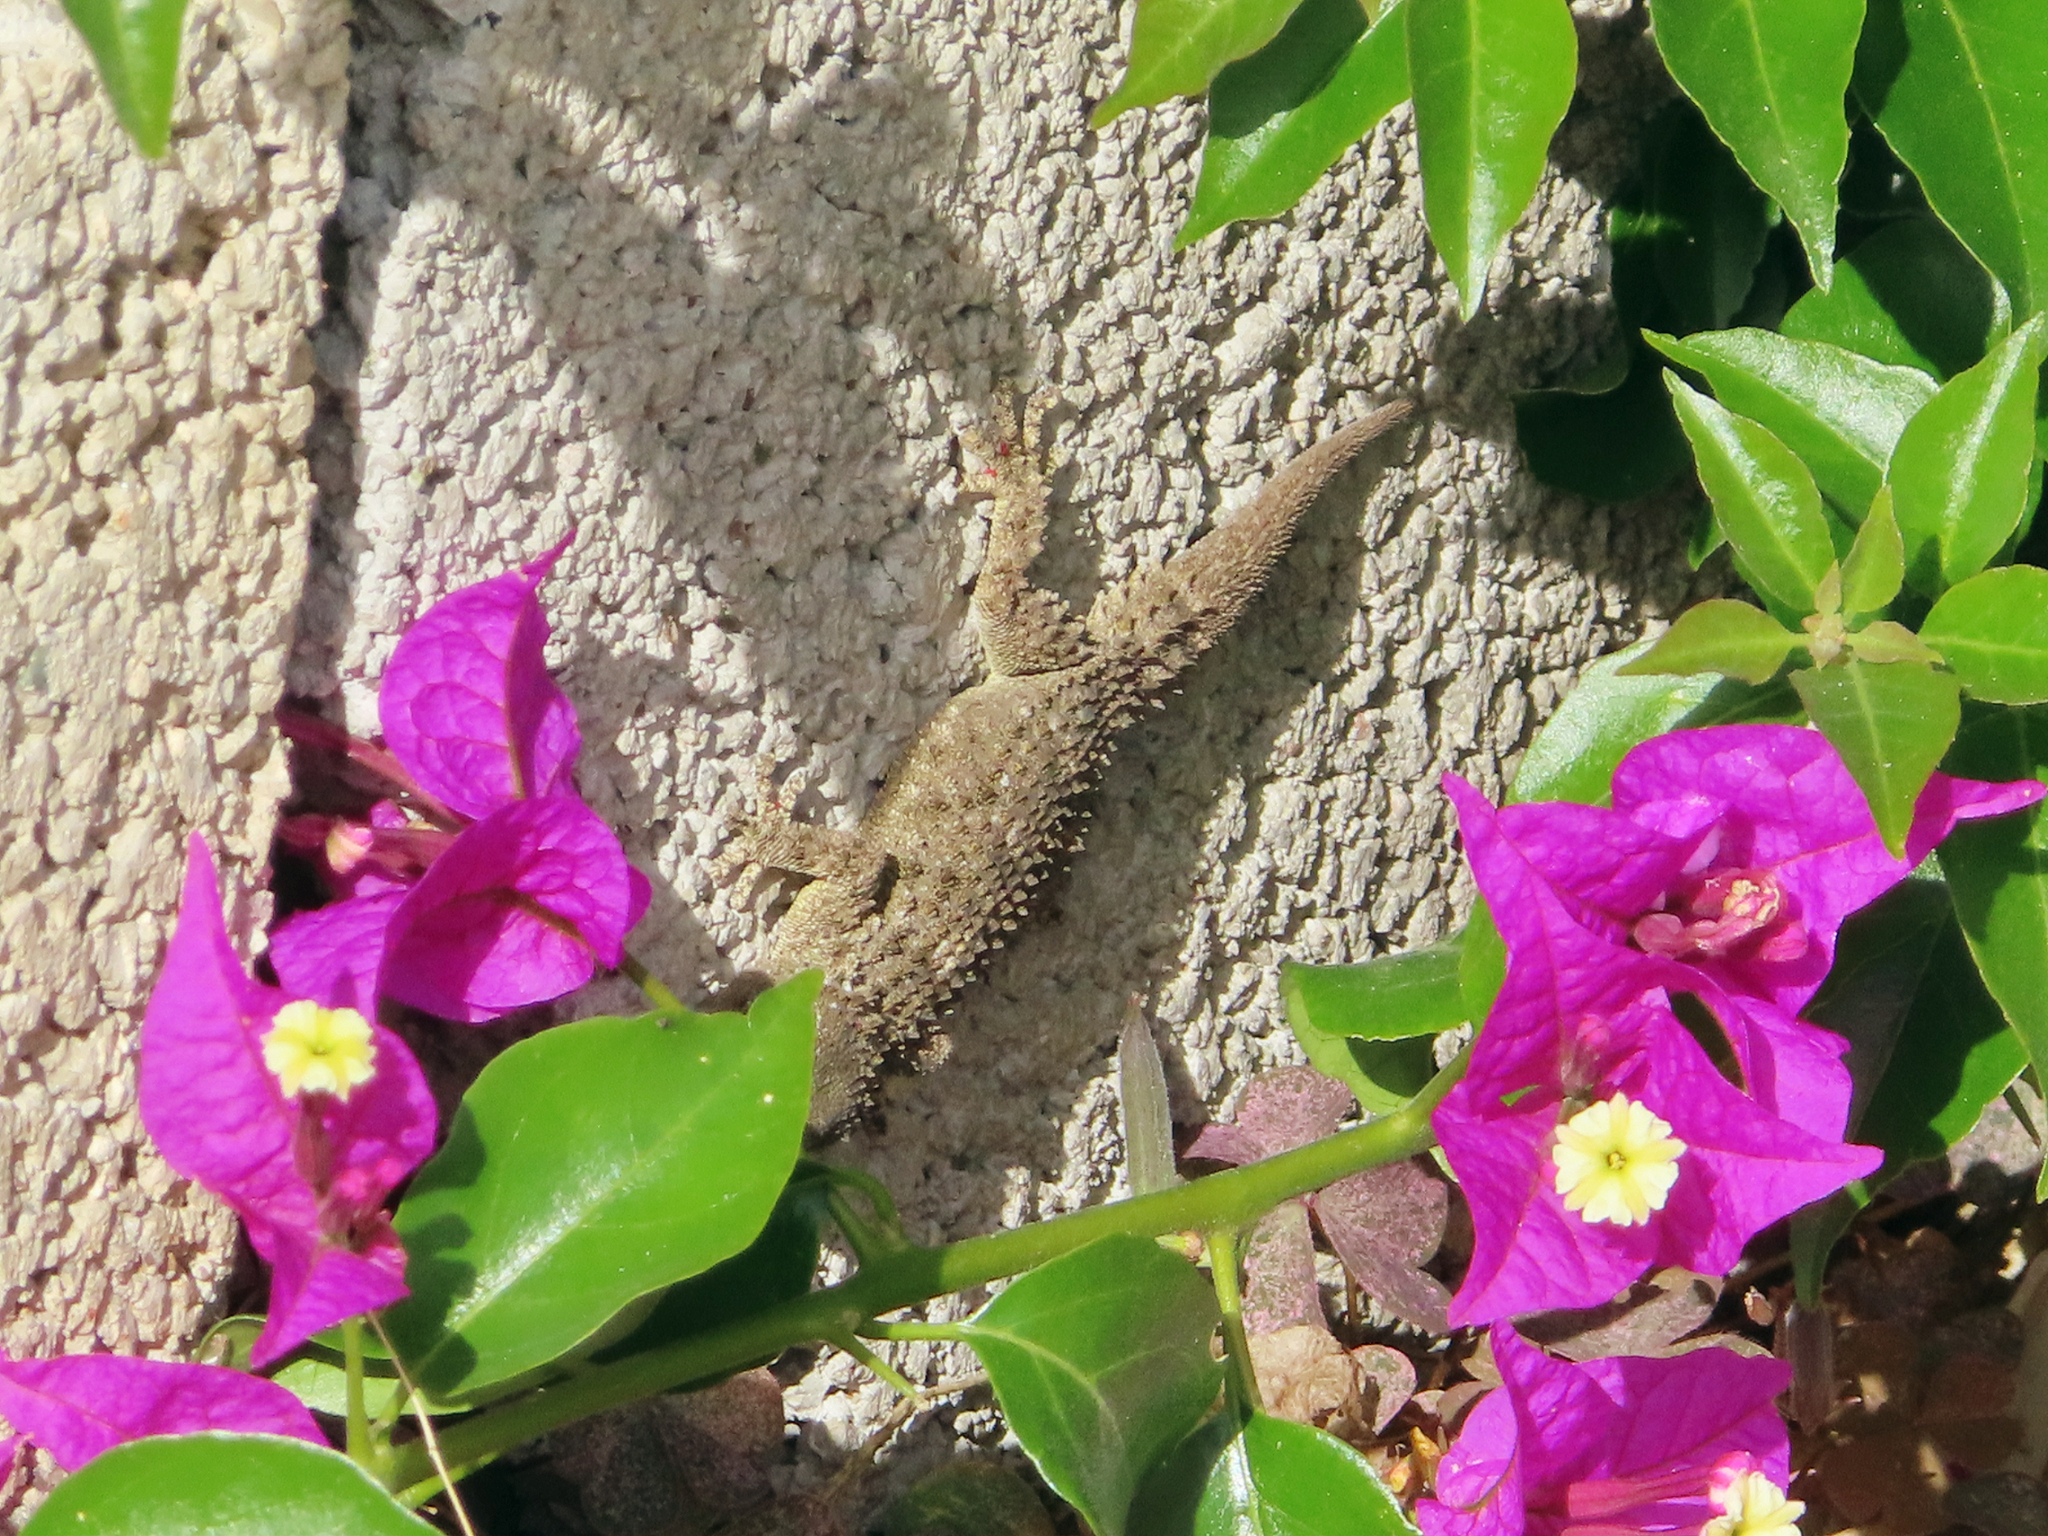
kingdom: Animalia
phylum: Chordata
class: Squamata
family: Phyllodactylidae
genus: Tarentola
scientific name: Tarentola mauritanica
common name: Moorish gecko
